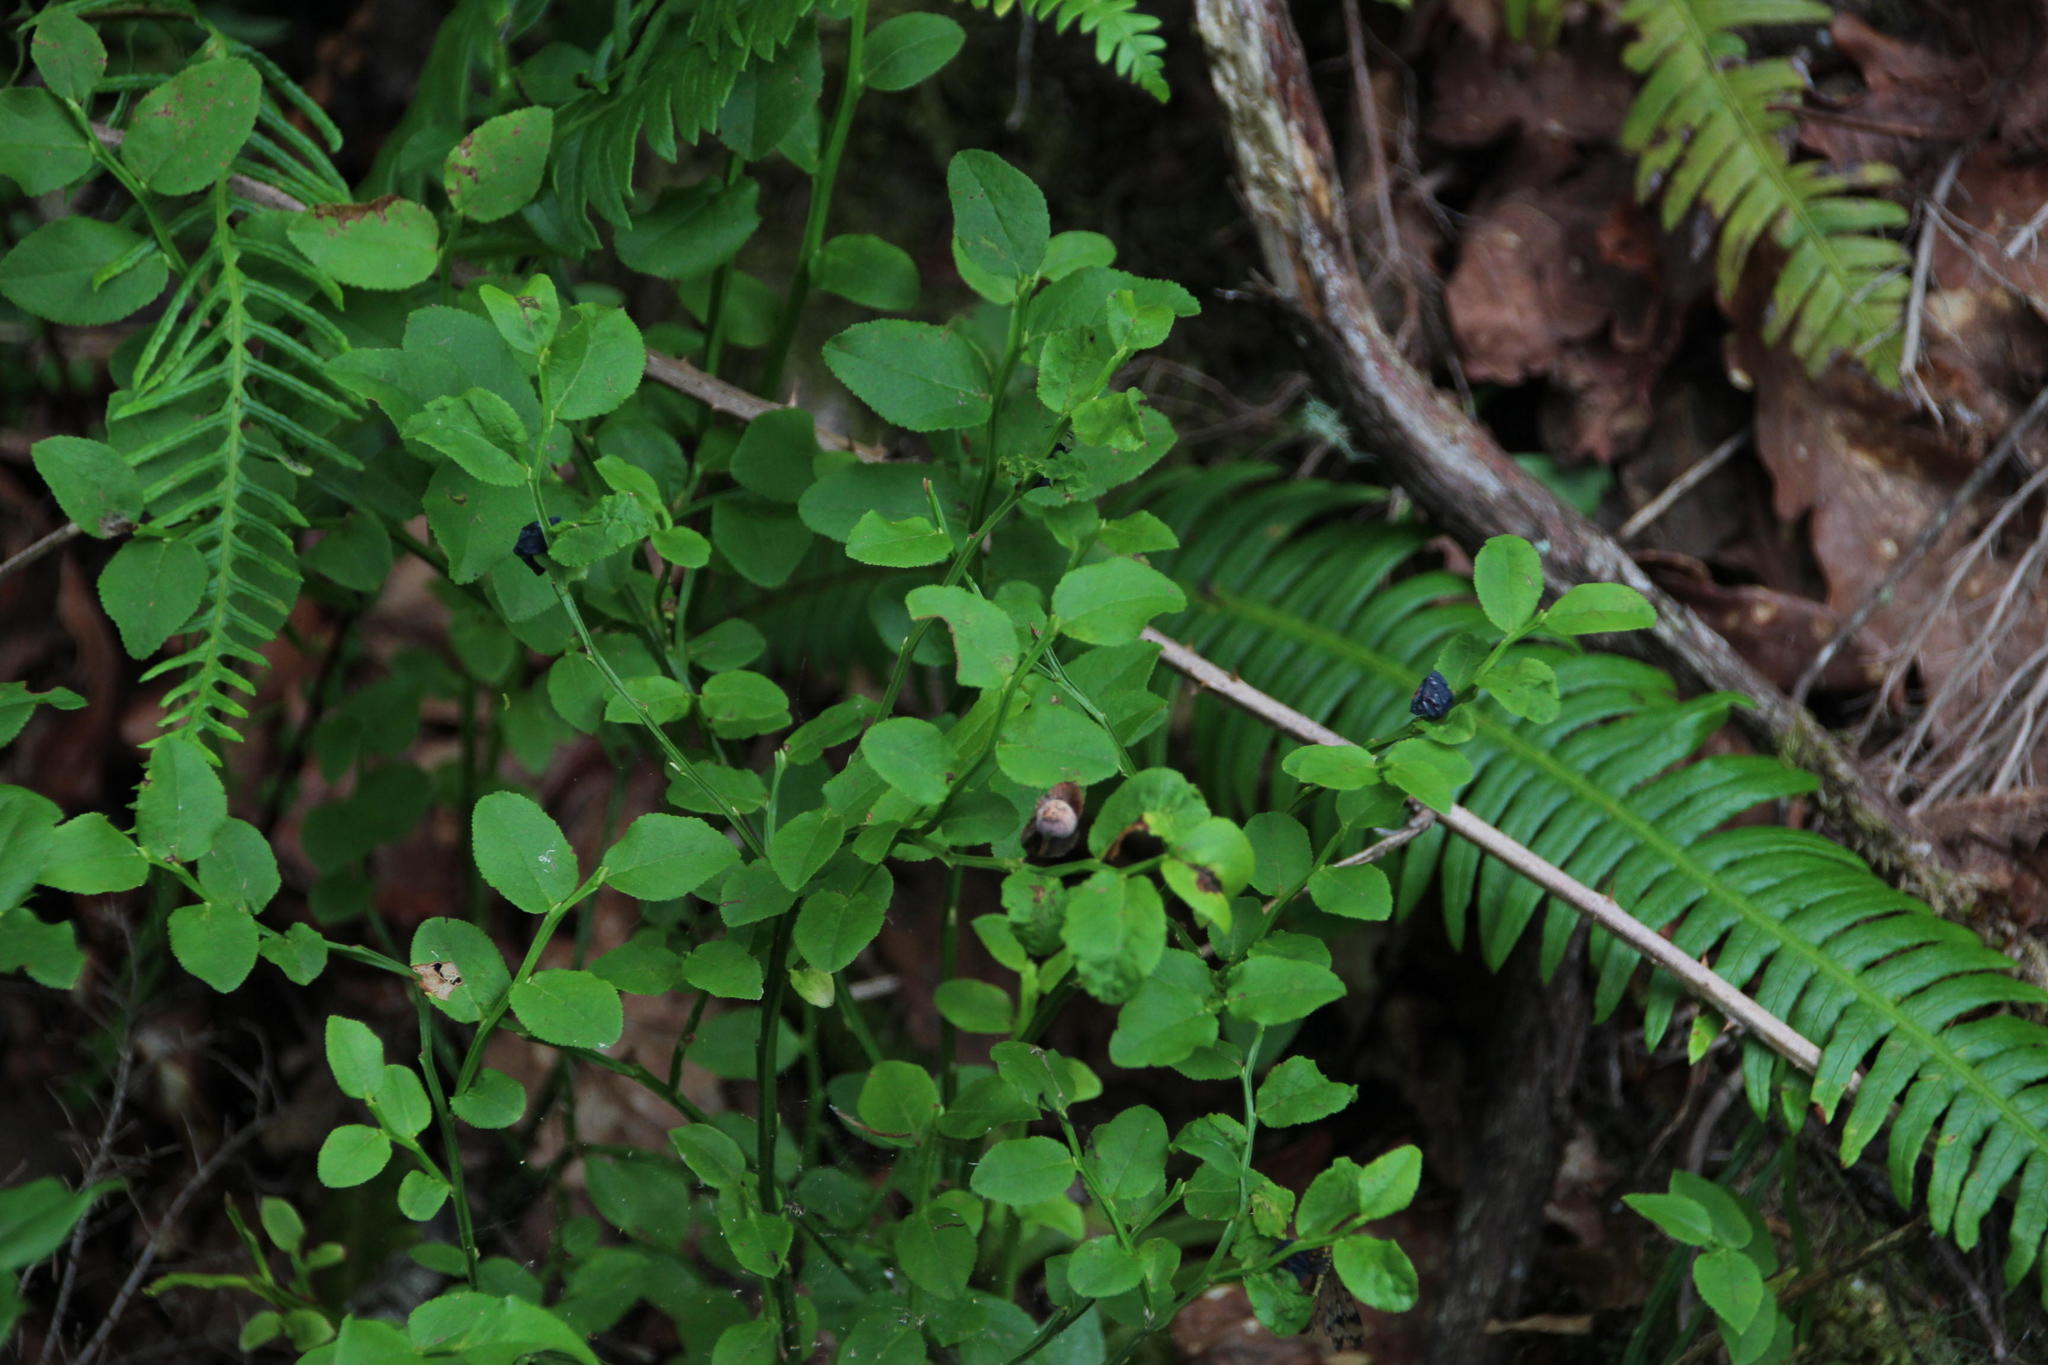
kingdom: Plantae
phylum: Tracheophyta
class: Magnoliopsida
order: Ericales
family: Ericaceae
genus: Vaccinium
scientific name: Vaccinium myrtillus
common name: Bilberry
